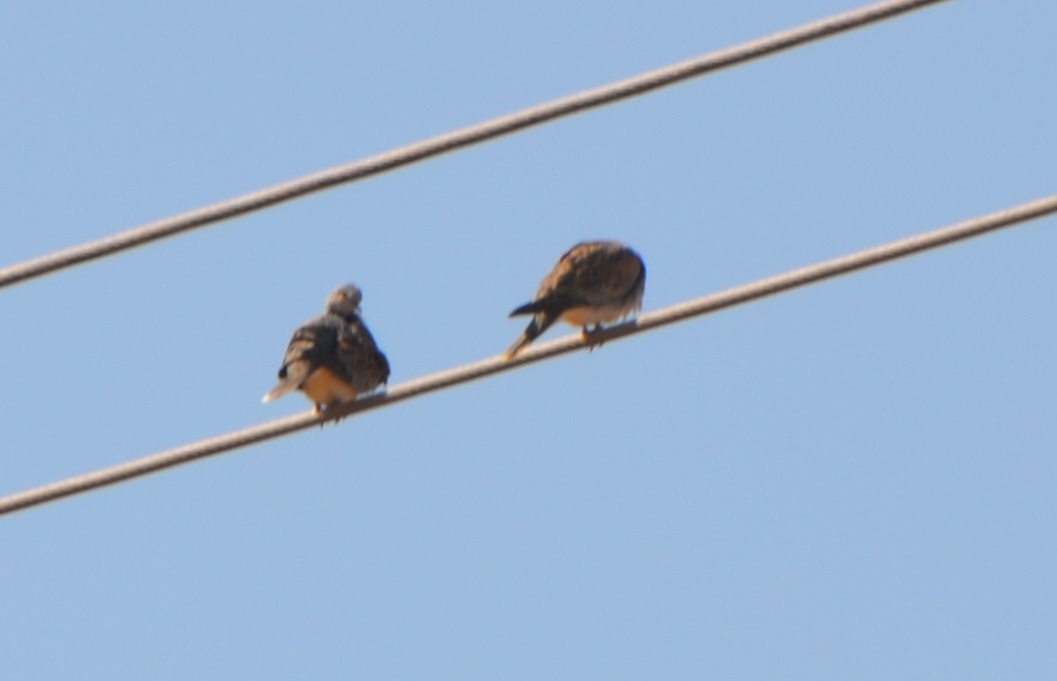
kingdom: Animalia
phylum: Chordata
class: Aves
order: Columbiformes
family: Columbidae
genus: Streptopelia
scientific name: Streptopelia turtur
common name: European turtle dove
